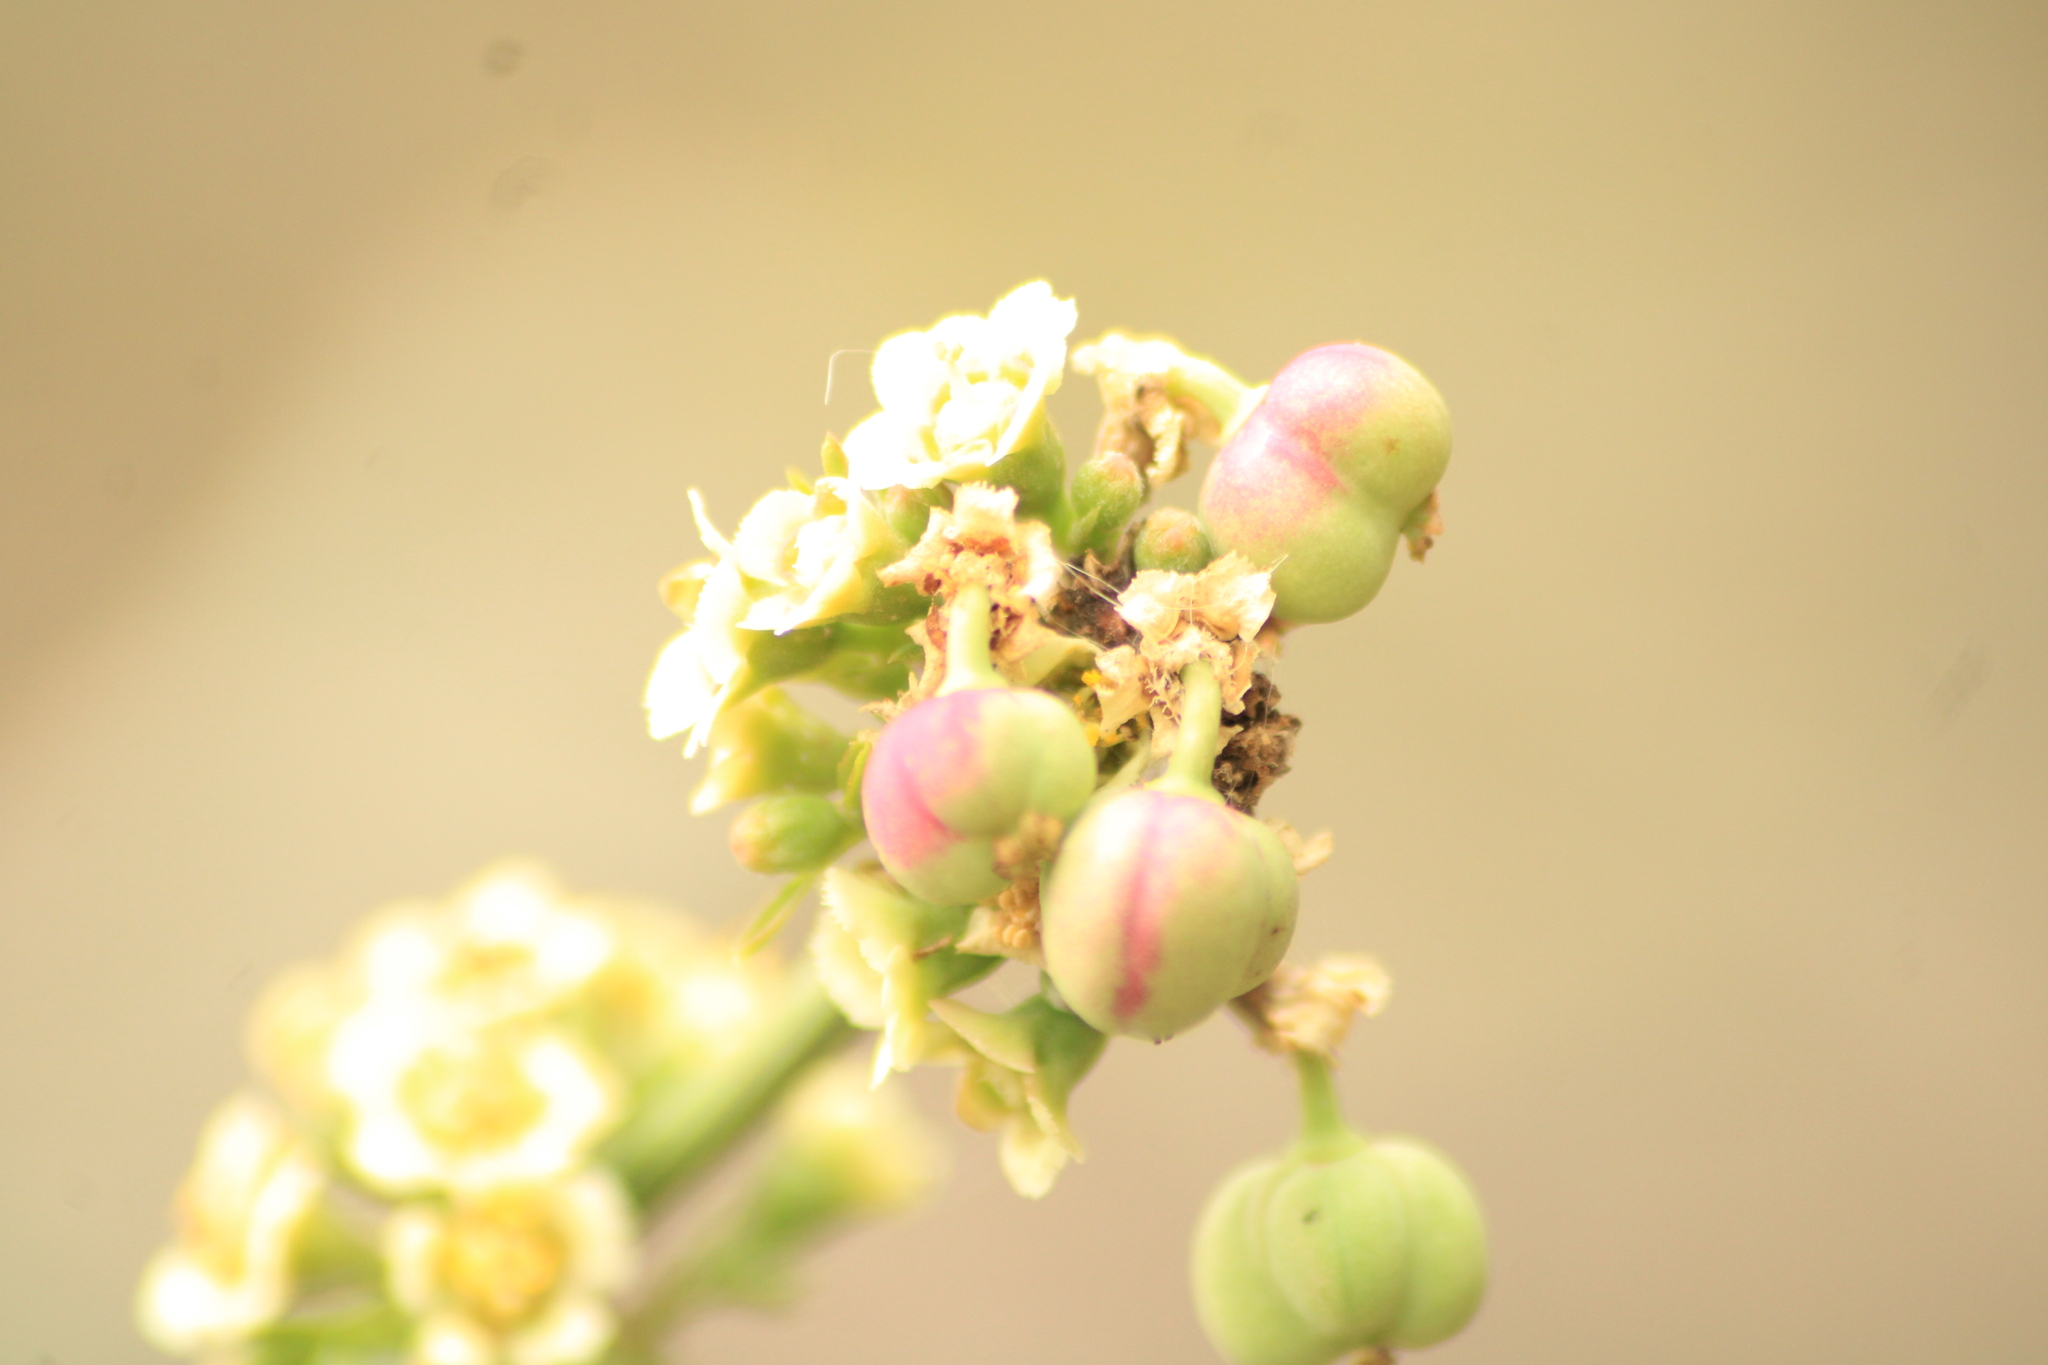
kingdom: Plantae
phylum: Tracheophyta
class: Magnoliopsida
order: Malpighiales
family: Euphorbiaceae
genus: Euphorbia
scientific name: Euphorbia cymosa
